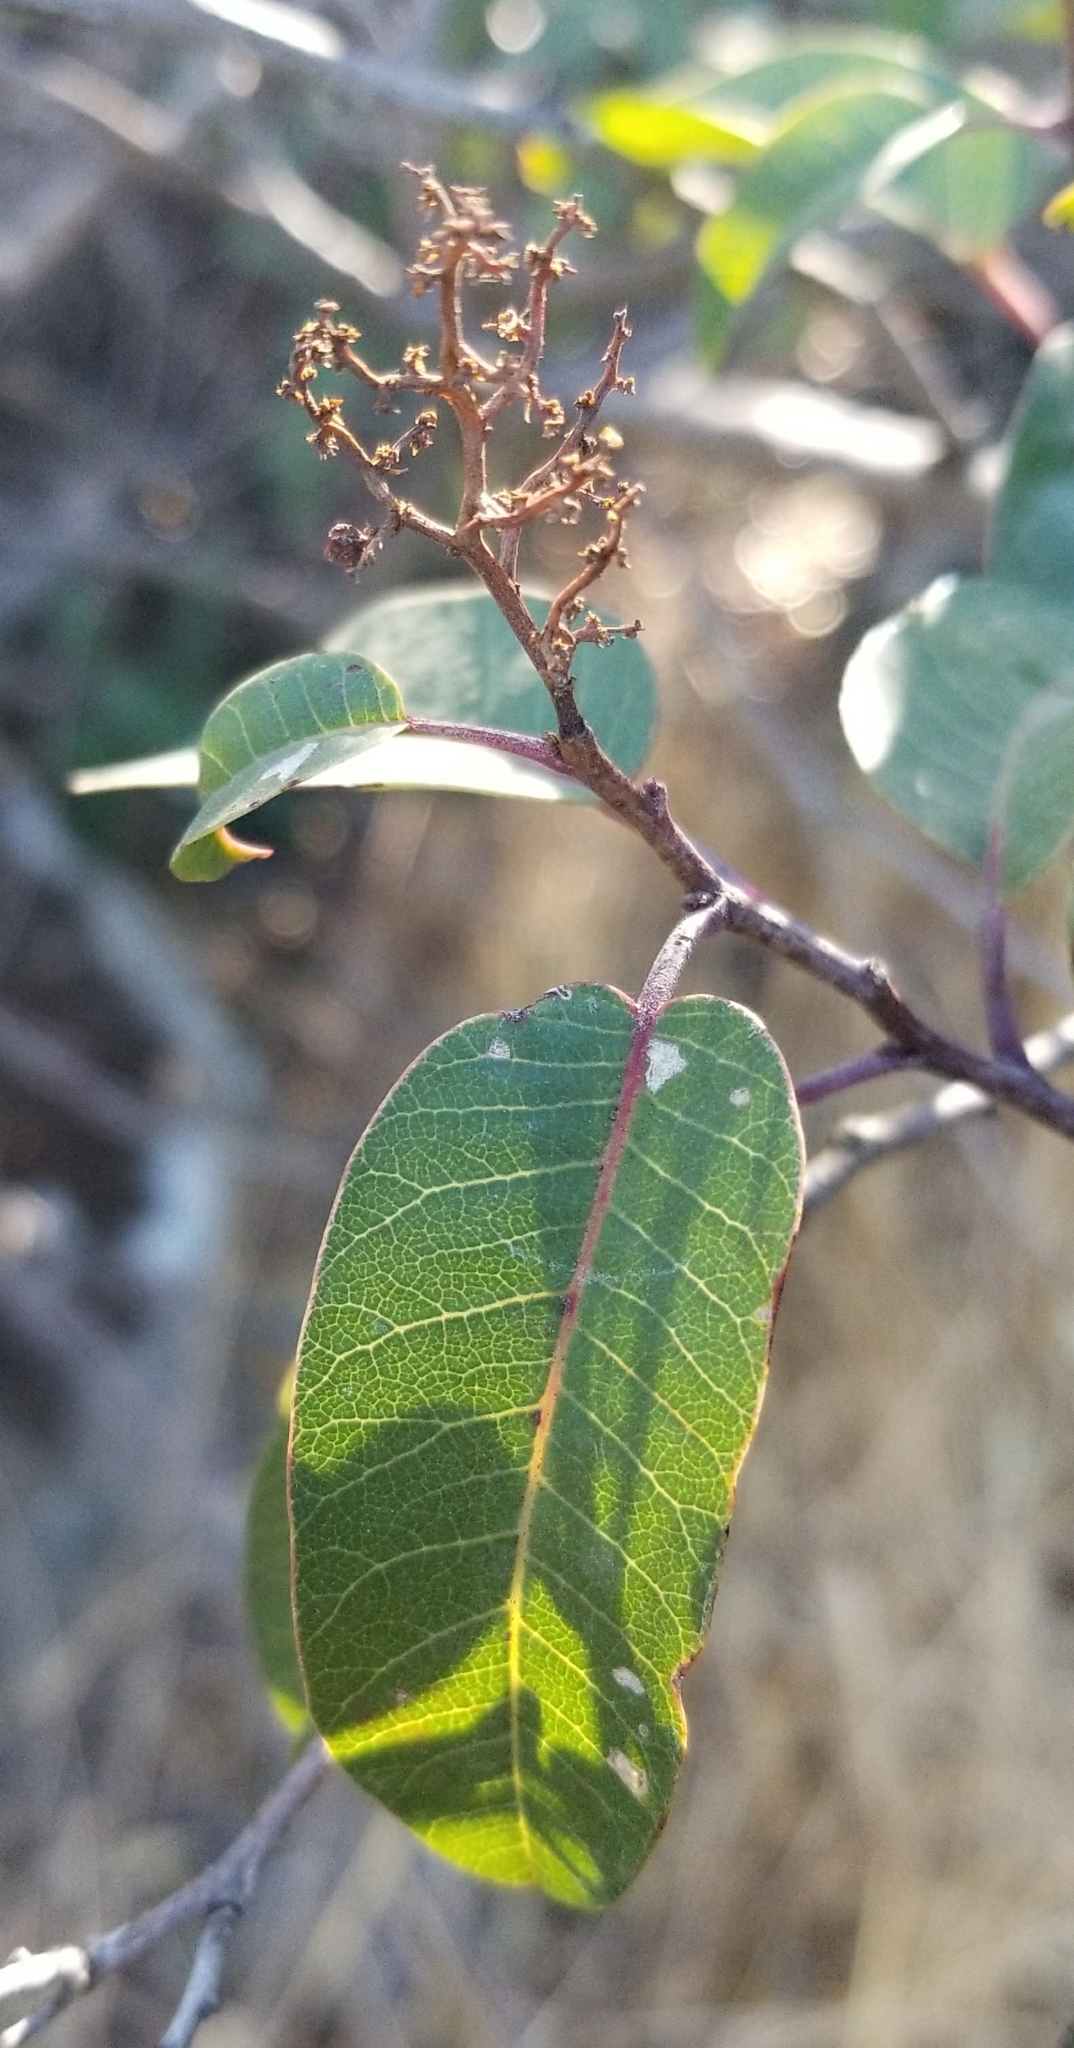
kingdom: Plantae
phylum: Tracheophyta
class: Magnoliopsida
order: Sapindales
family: Anacardiaceae
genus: Malosma
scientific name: Malosma laurina
